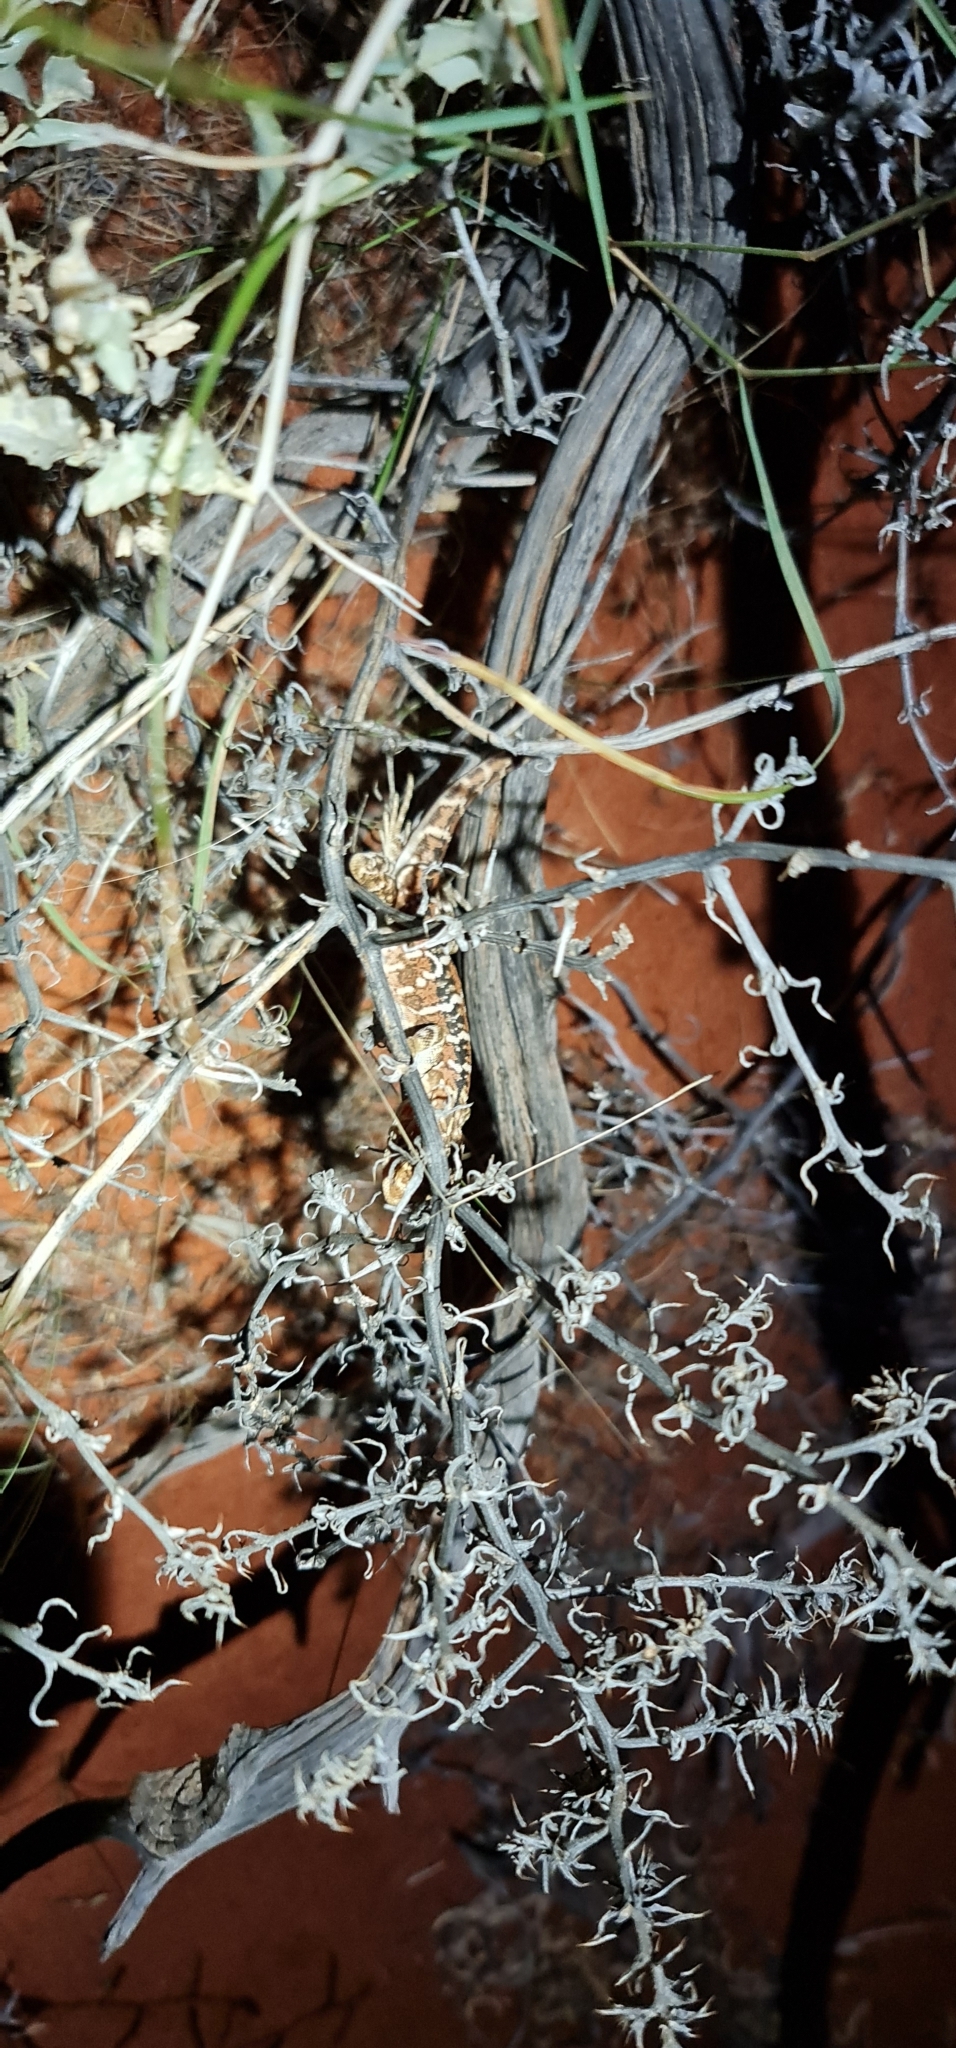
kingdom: Animalia
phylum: Chordata
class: Squamata
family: Agamidae
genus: Ctenophorus
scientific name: Ctenophorus pictus
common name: Painted dragon
